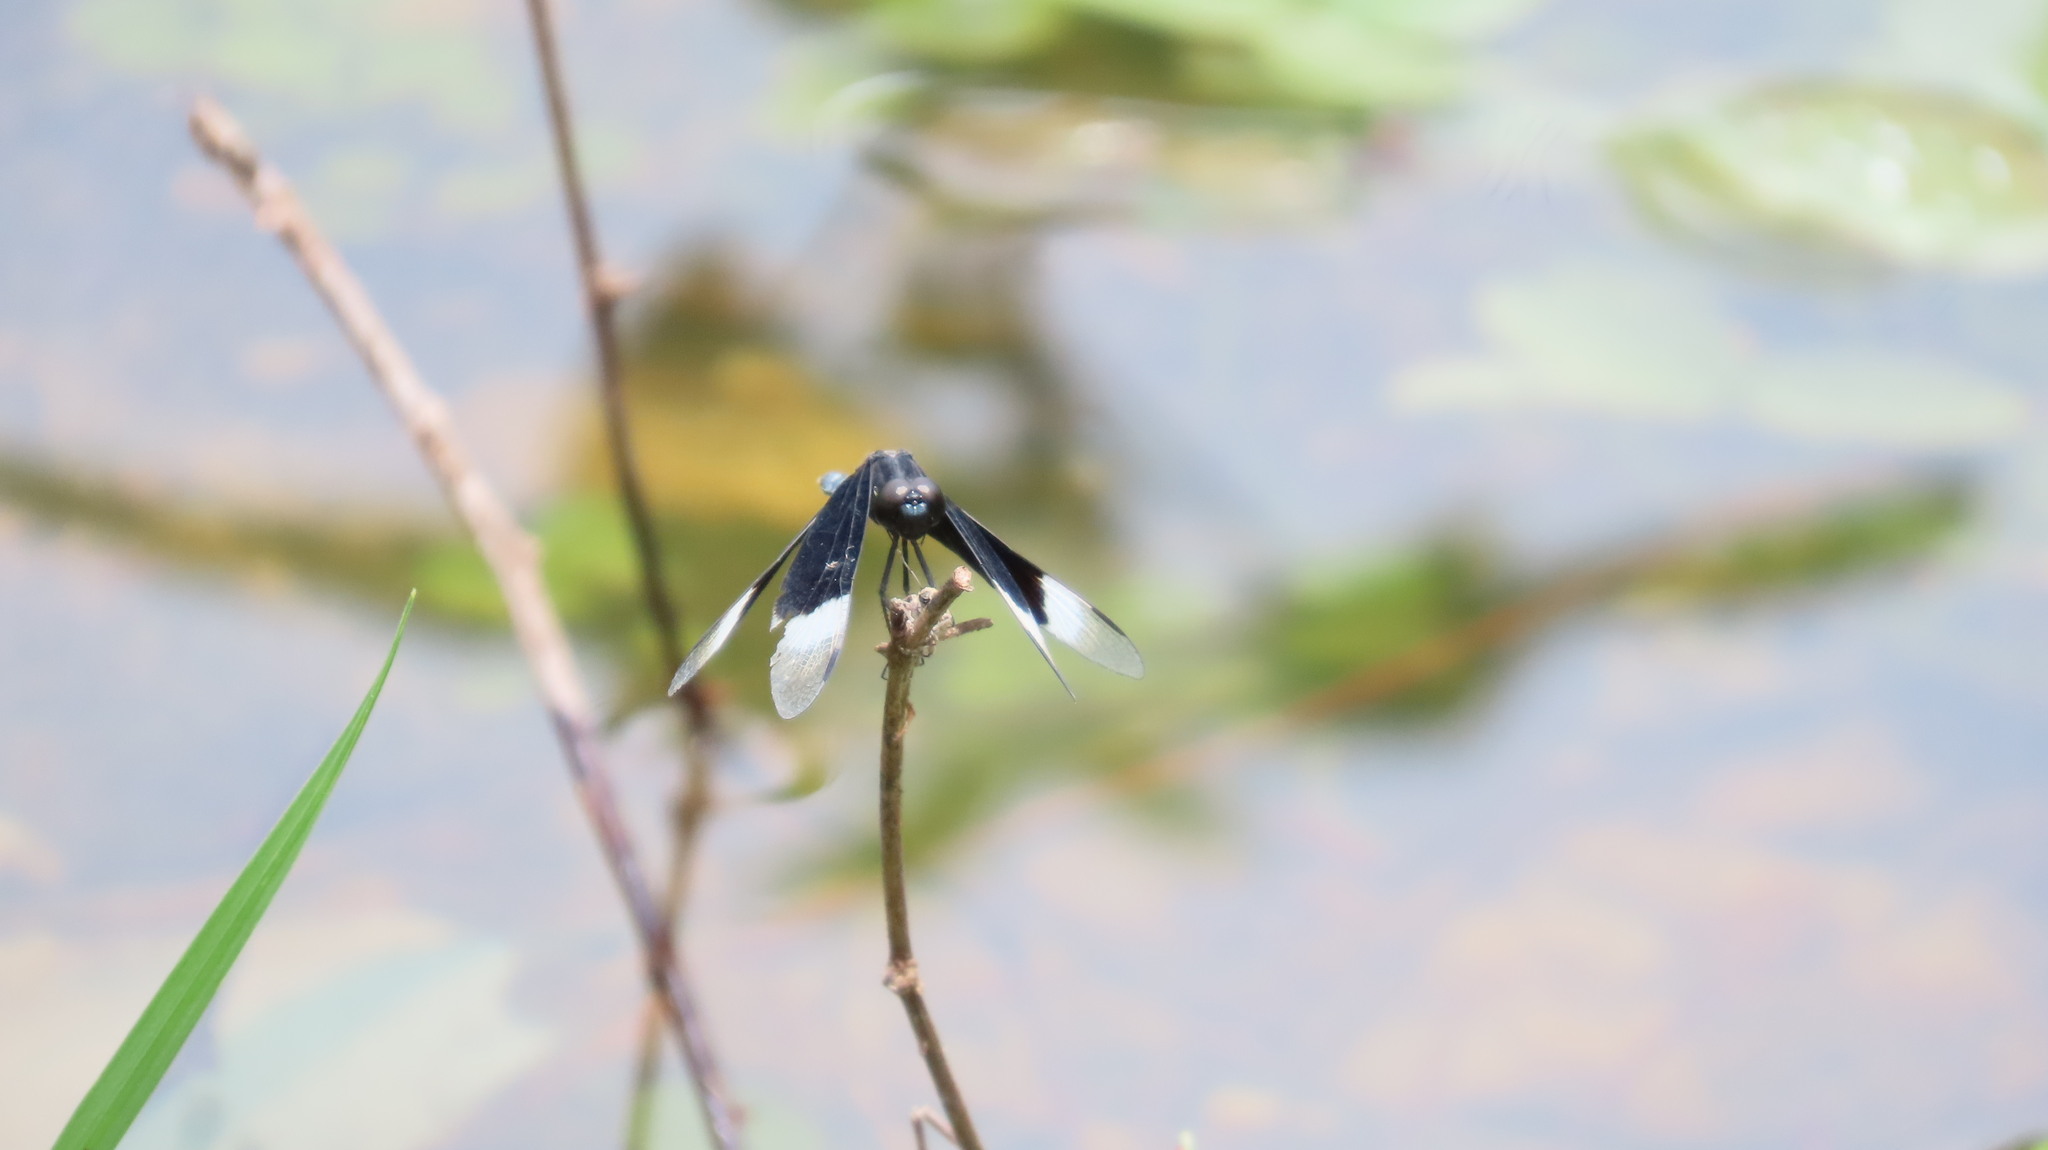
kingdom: Animalia
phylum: Arthropoda
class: Insecta
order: Odonata
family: Libellulidae
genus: Neurothemis
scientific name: Neurothemis tullia
